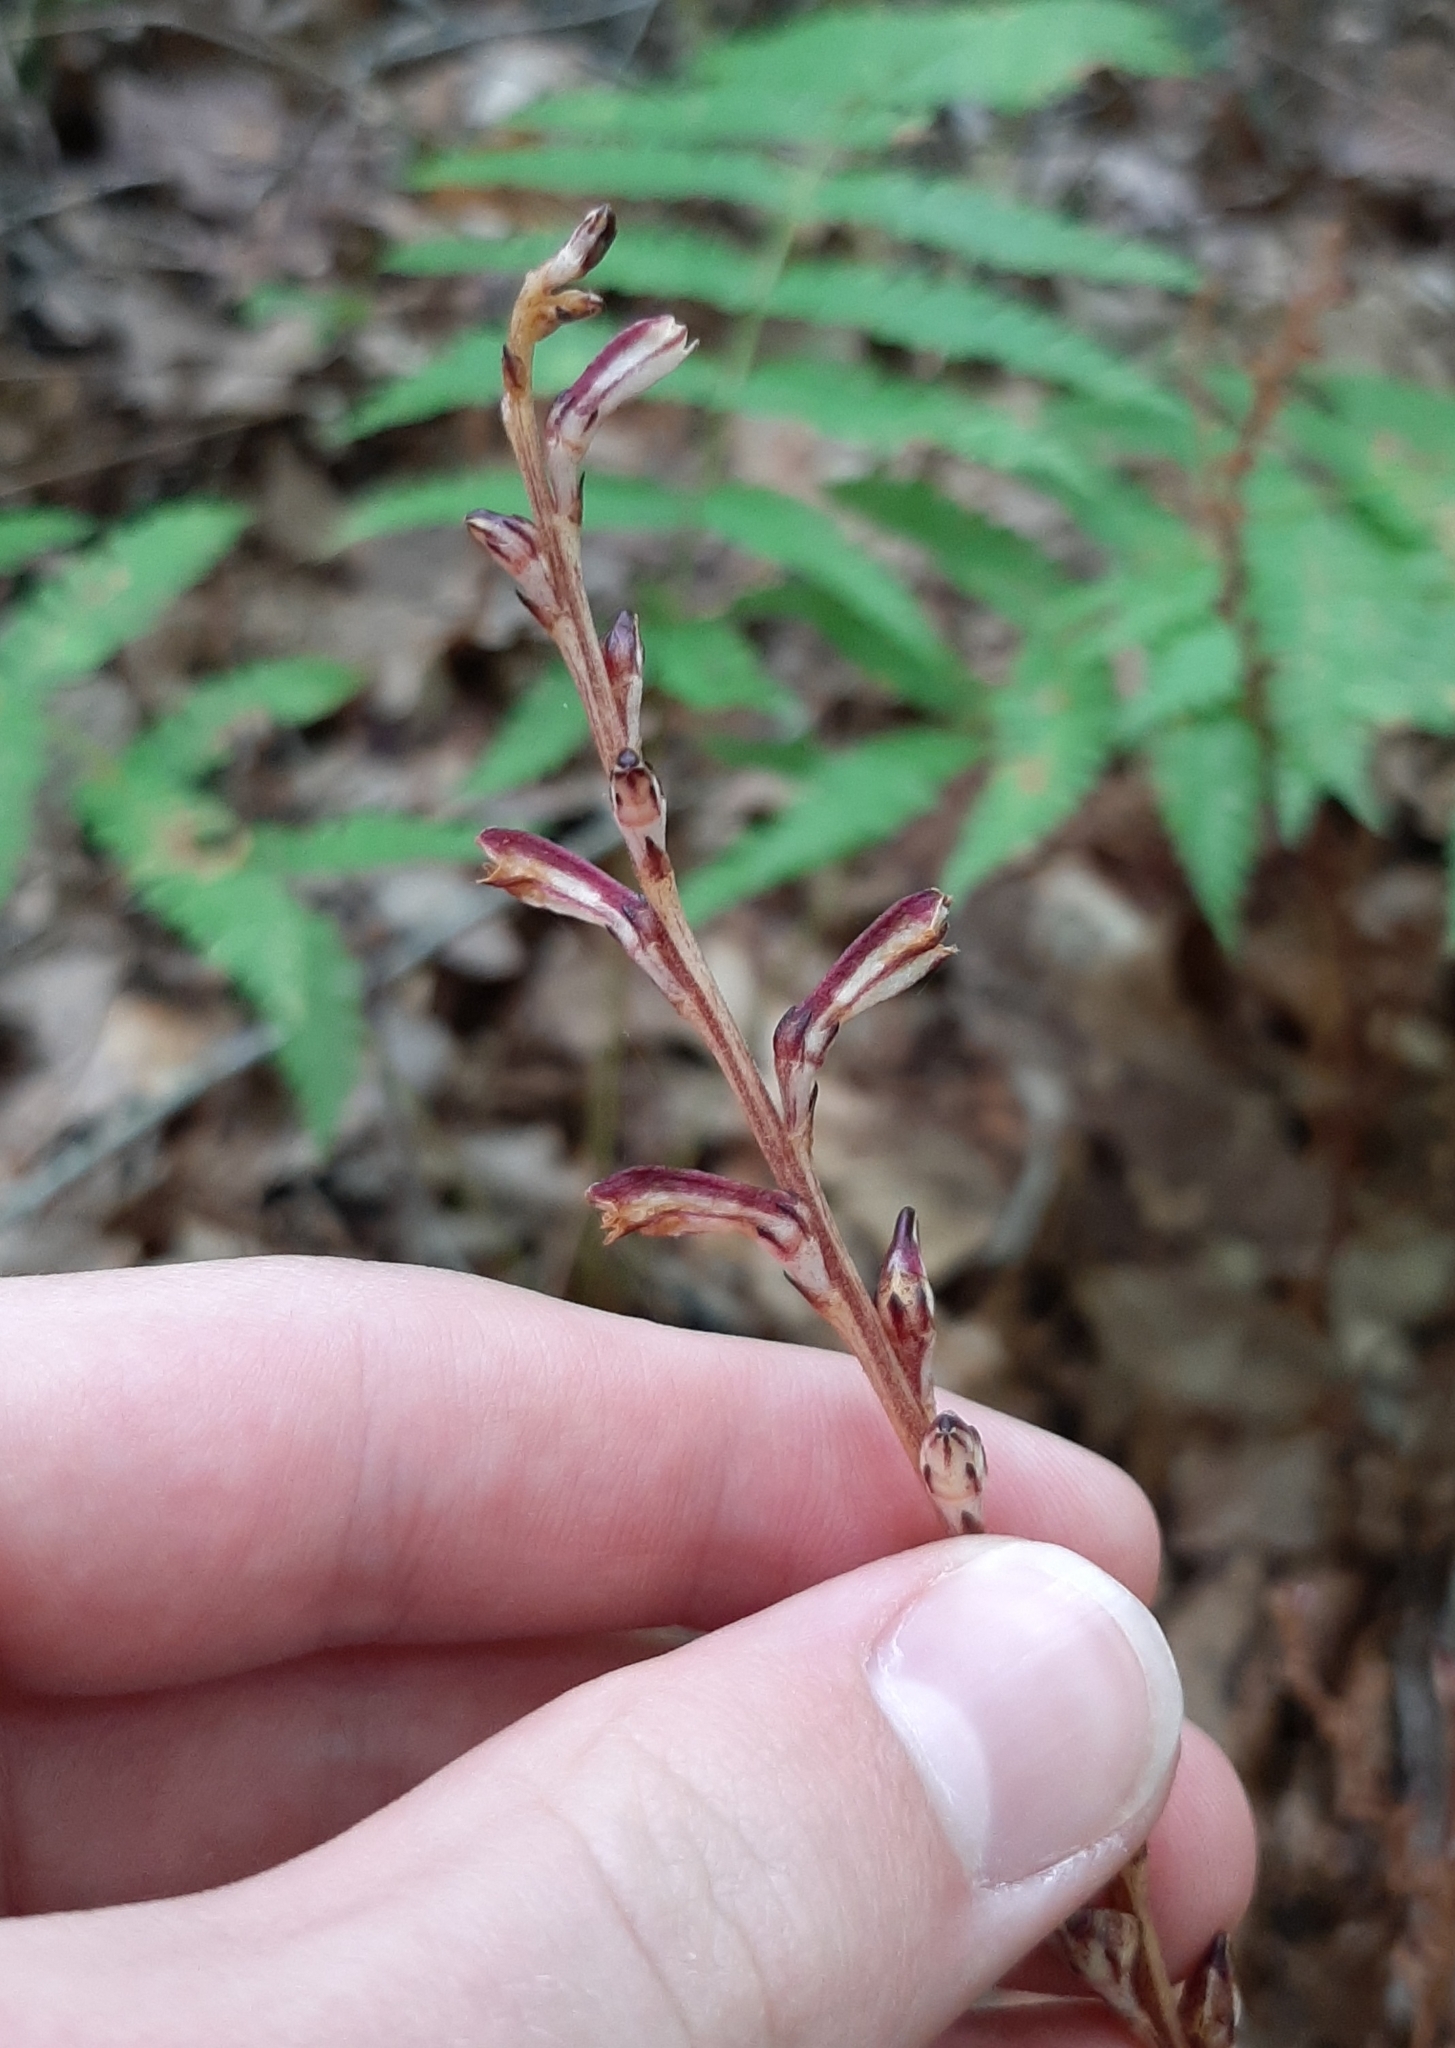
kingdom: Plantae
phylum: Tracheophyta
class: Magnoliopsida
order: Lamiales
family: Orobanchaceae
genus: Epifagus
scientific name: Epifagus virginiana
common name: Beechdrops
